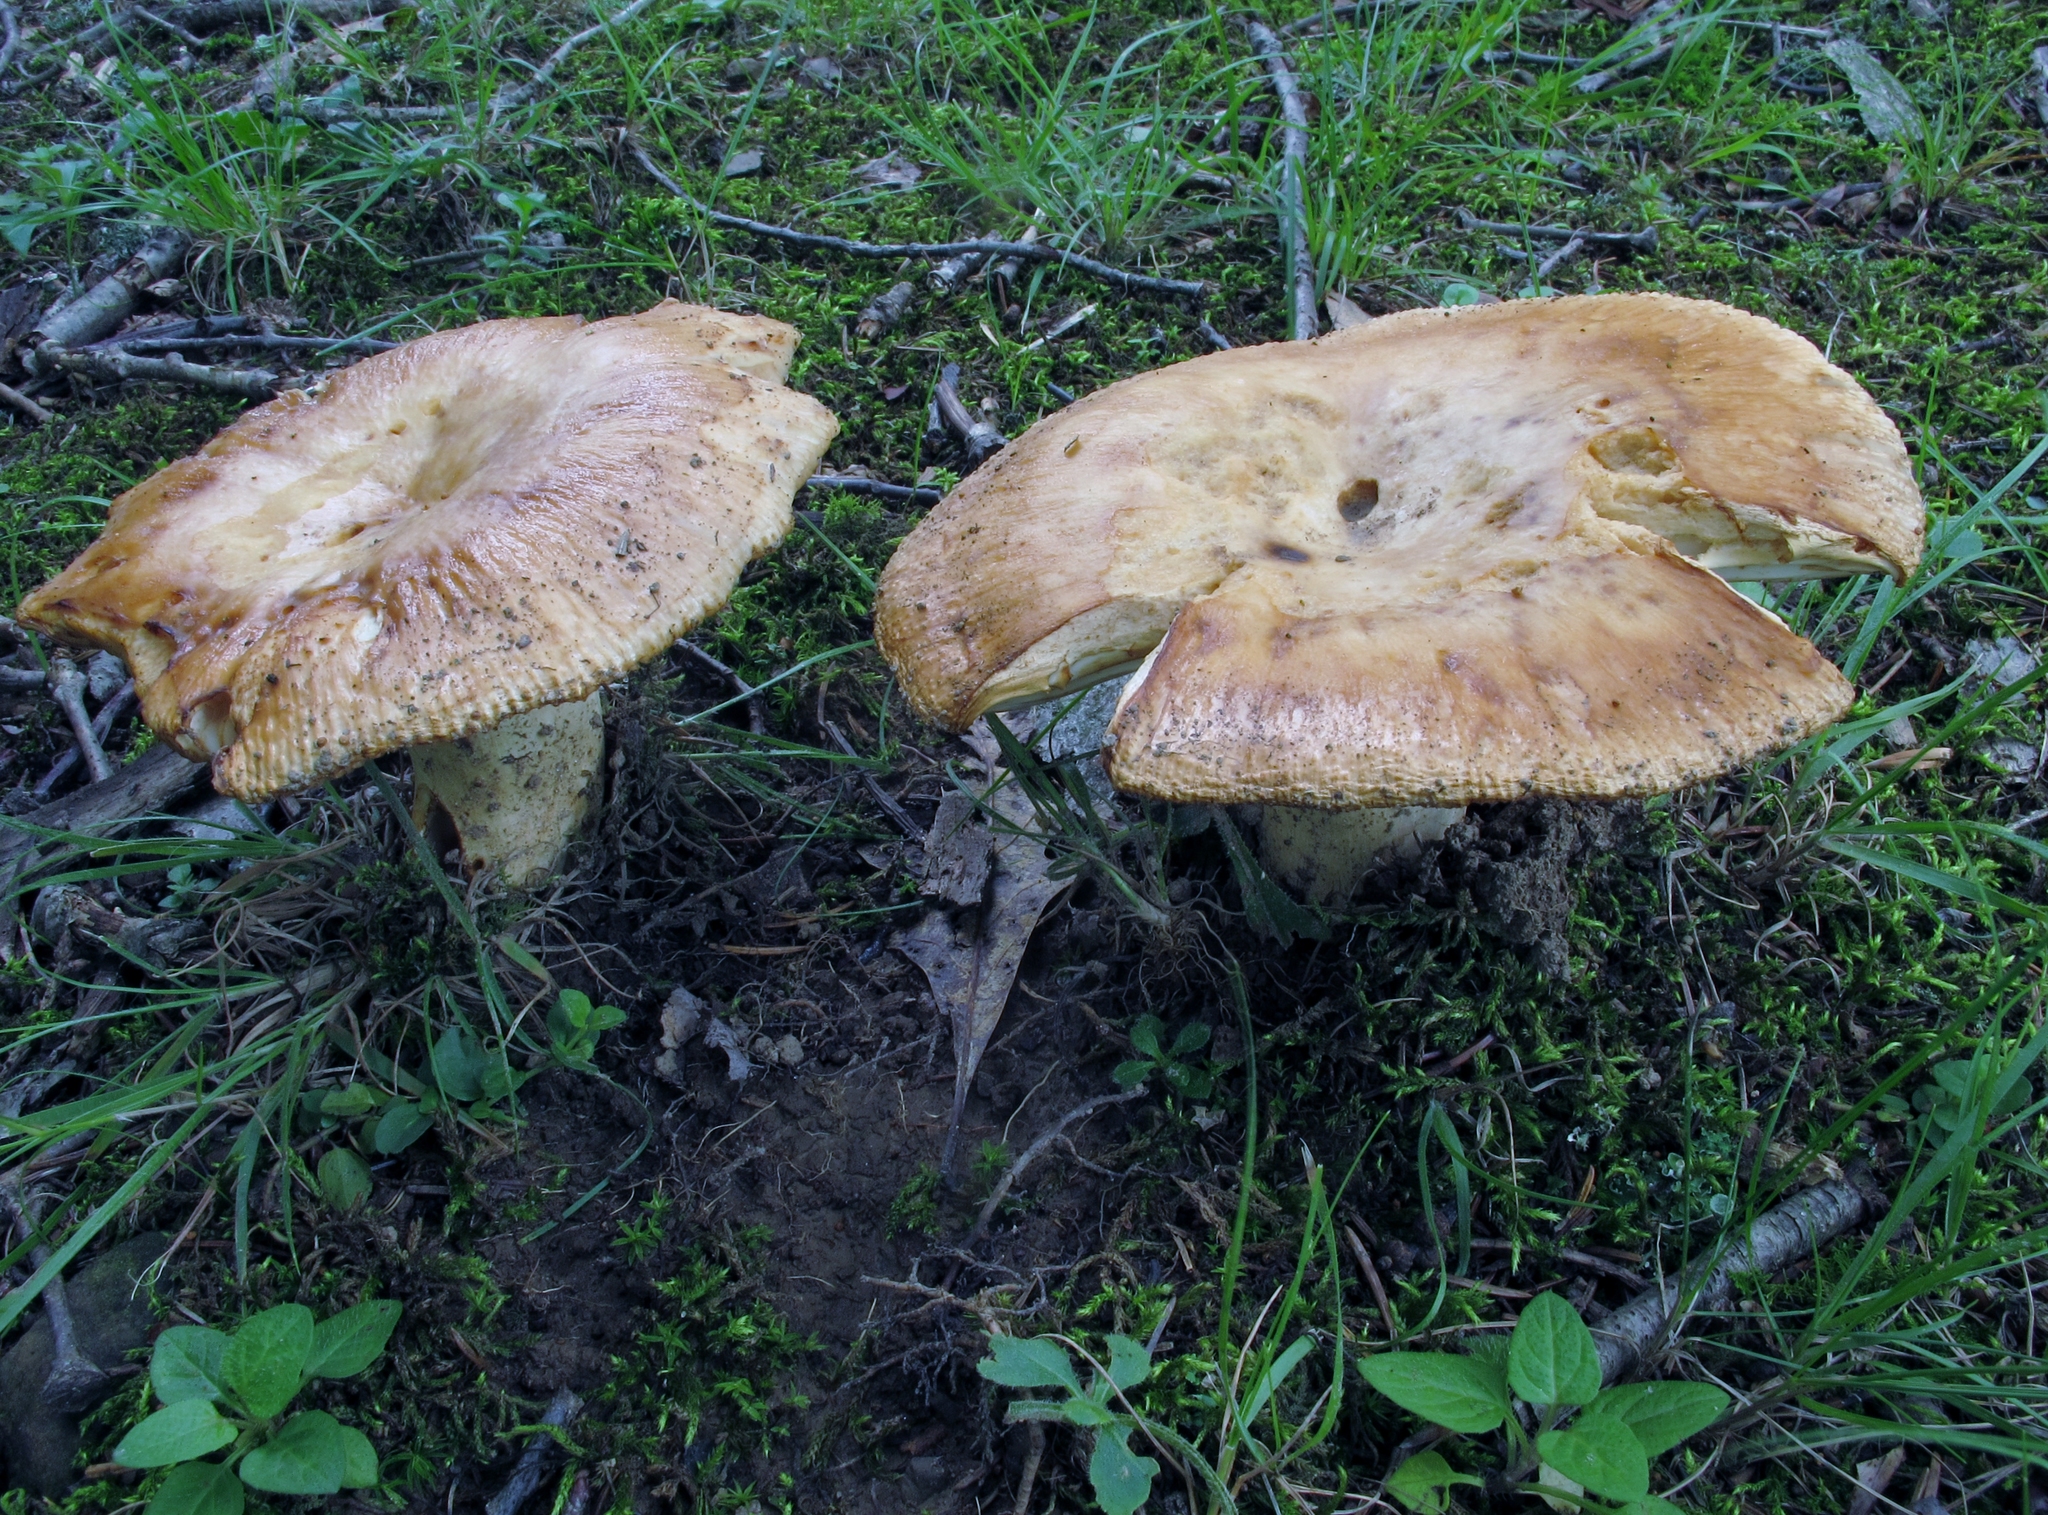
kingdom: Fungi
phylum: Basidiomycota
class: Agaricomycetes
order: Russulales
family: Russulaceae
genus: Russula
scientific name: Russula grata
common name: Bitter almond brittlegill
